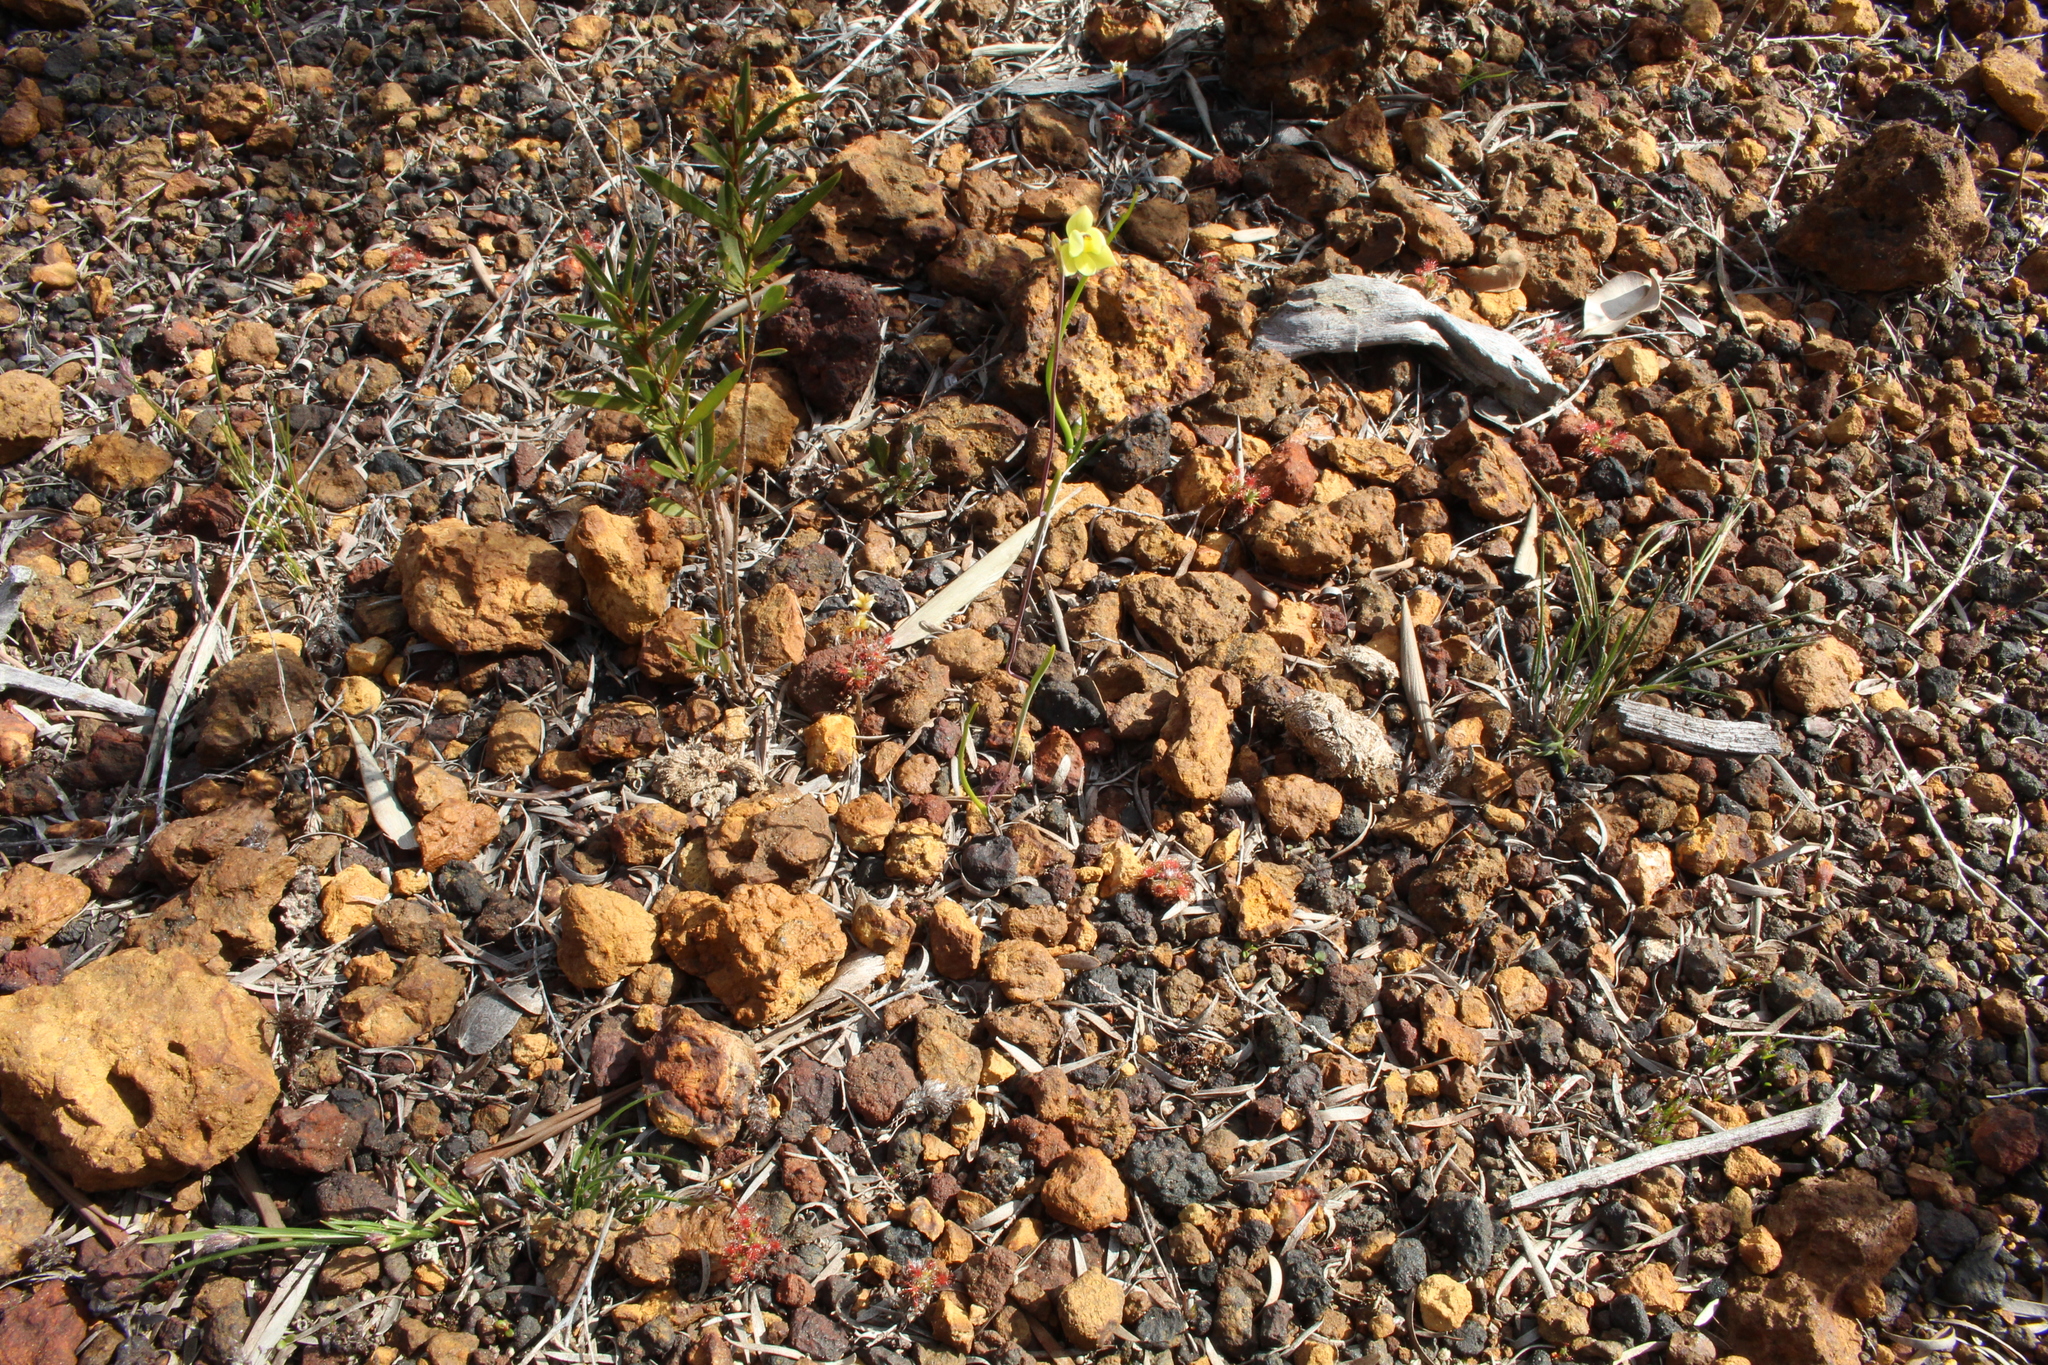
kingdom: Plantae
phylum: Tracheophyta
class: Liliopsida
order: Asparagales
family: Orchidaceae
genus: Thelymitra
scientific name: Thelymitra flexuosa
